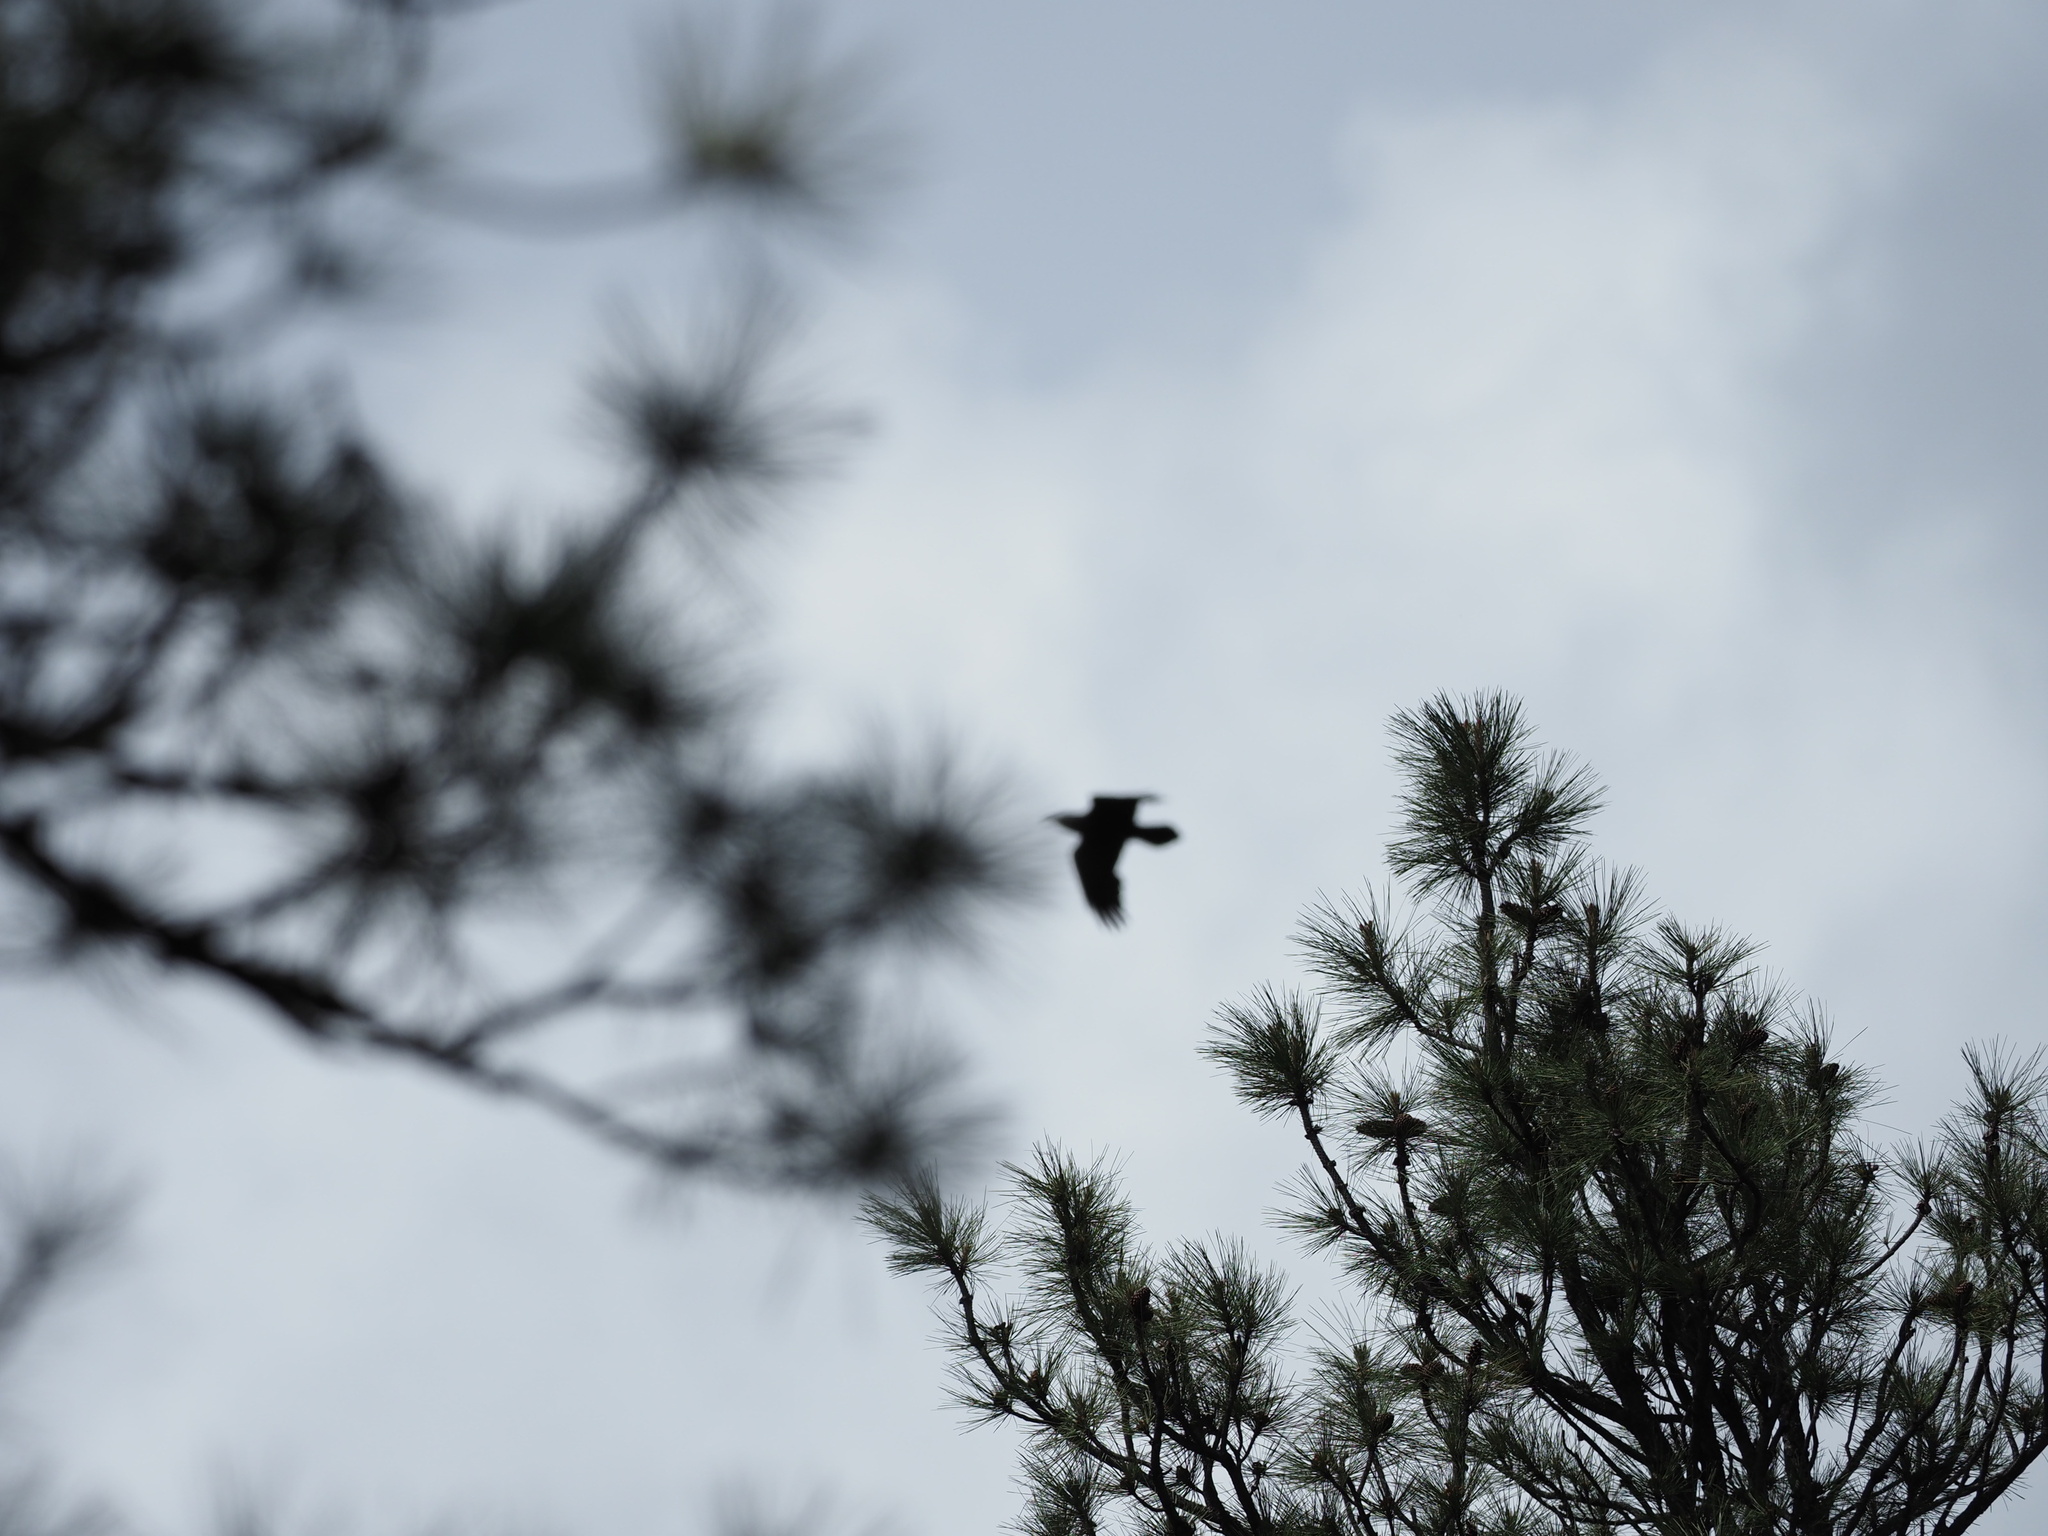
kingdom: Animalia
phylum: Chordata
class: Aves
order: Passeriformes
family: Corvidae
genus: Corvus
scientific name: Corvus corax
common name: Common raven
